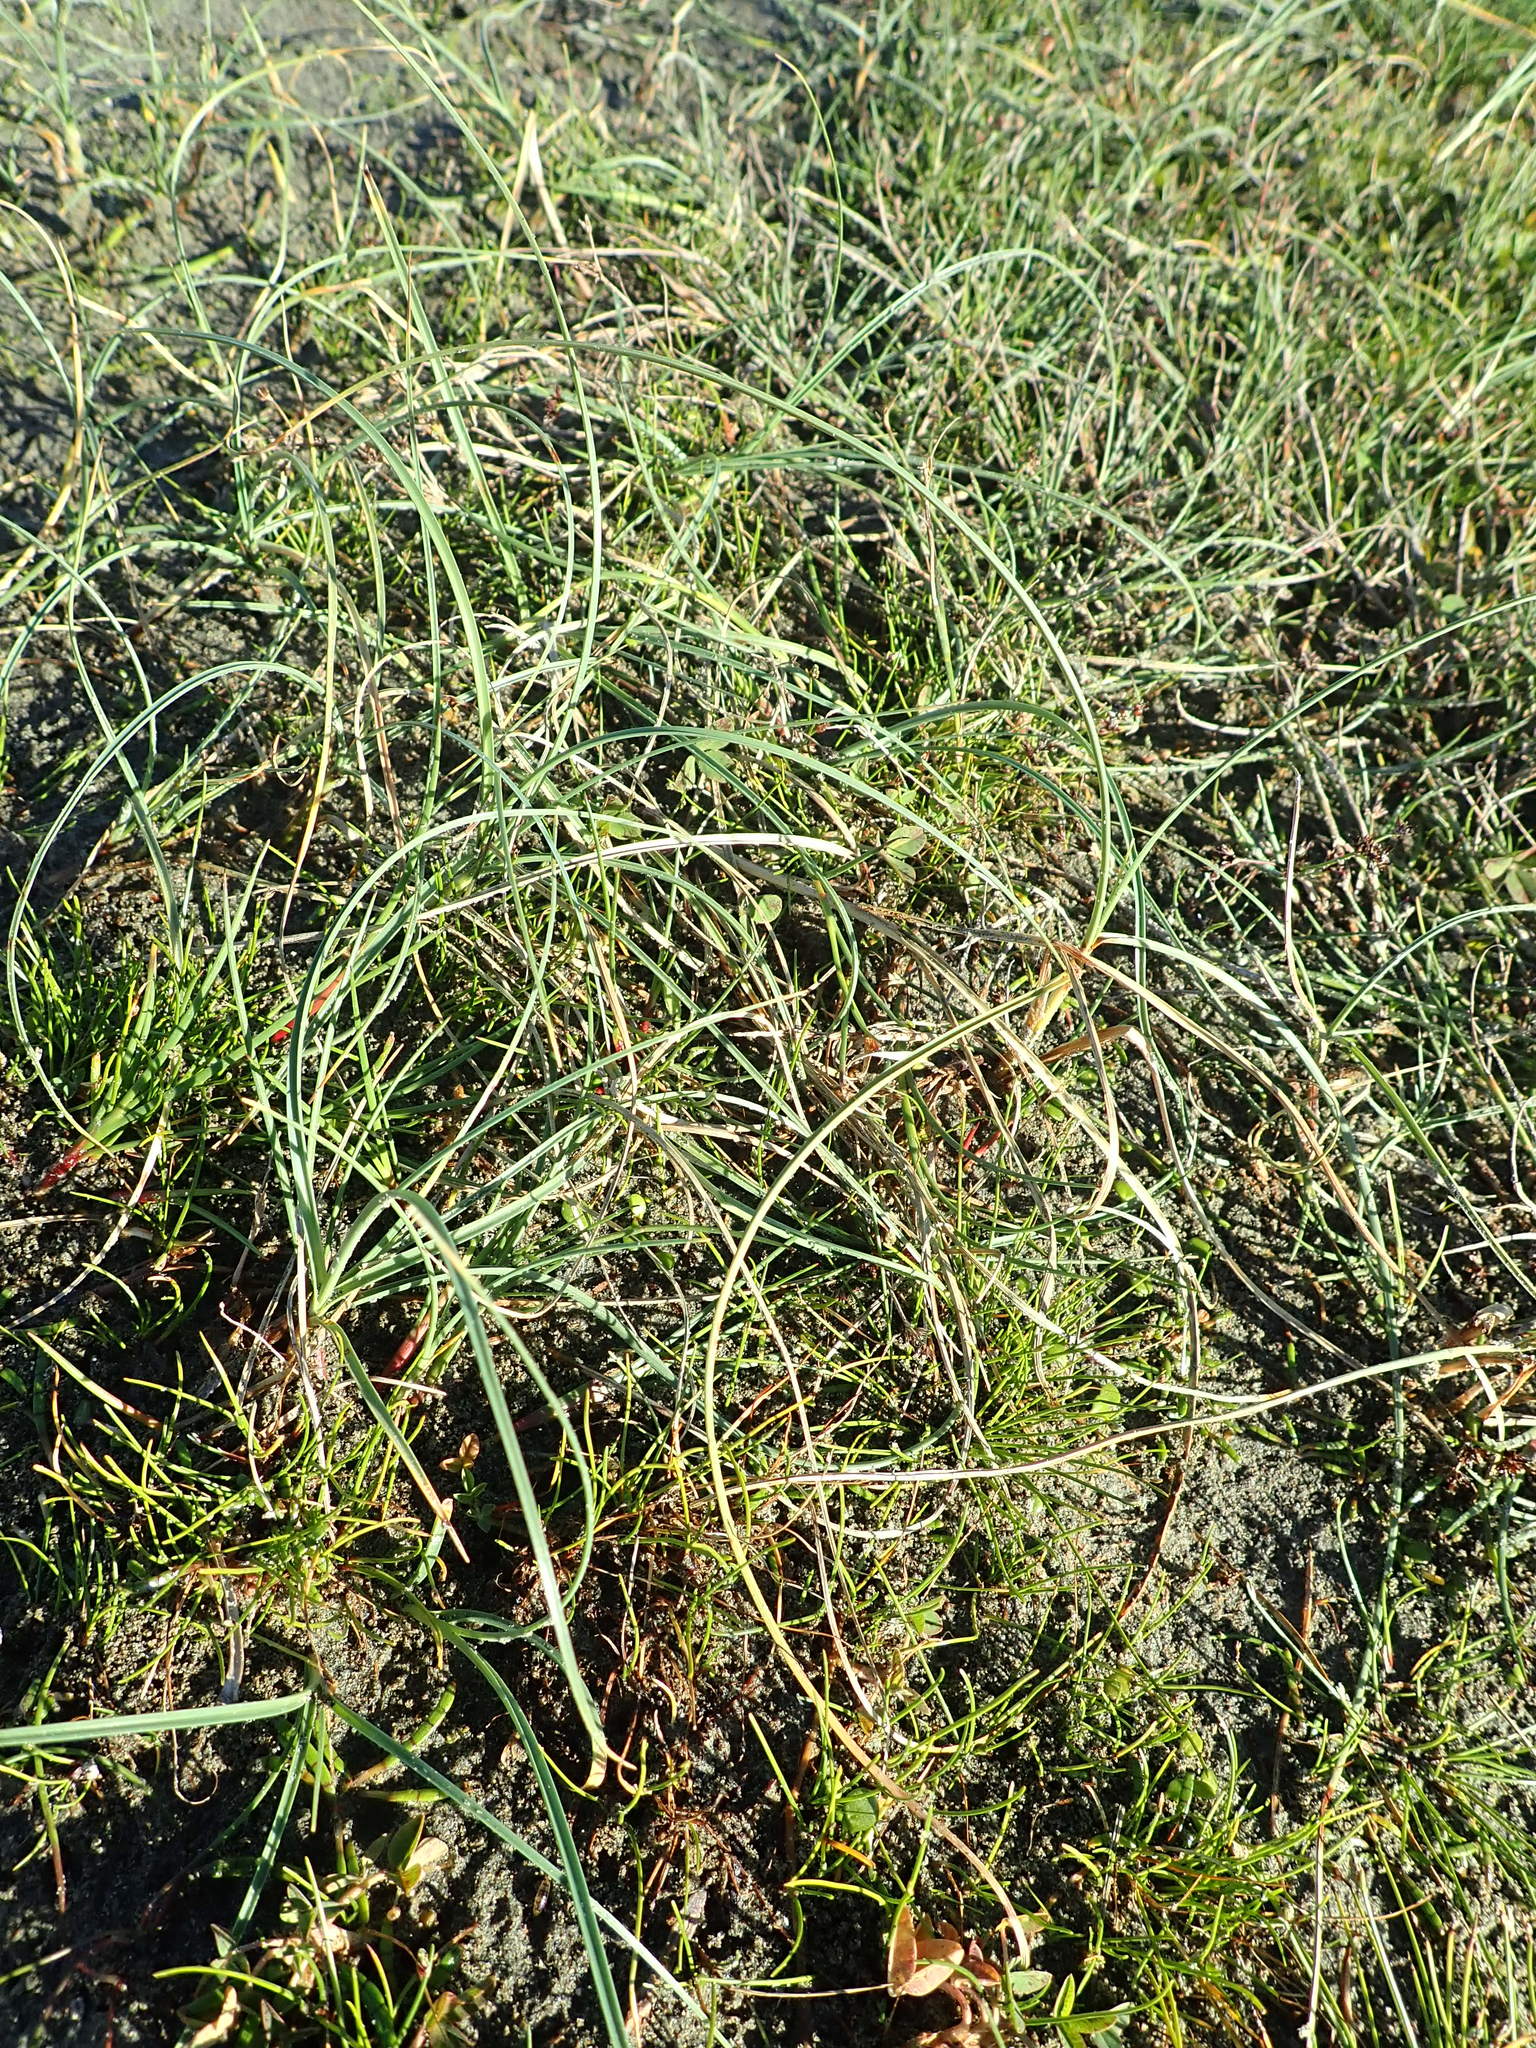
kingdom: Plantae
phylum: Tracheophyta
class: Liliopsida
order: Poales
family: Cyperaceae
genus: Carex
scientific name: Carex pumila
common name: Dwarf sedge
